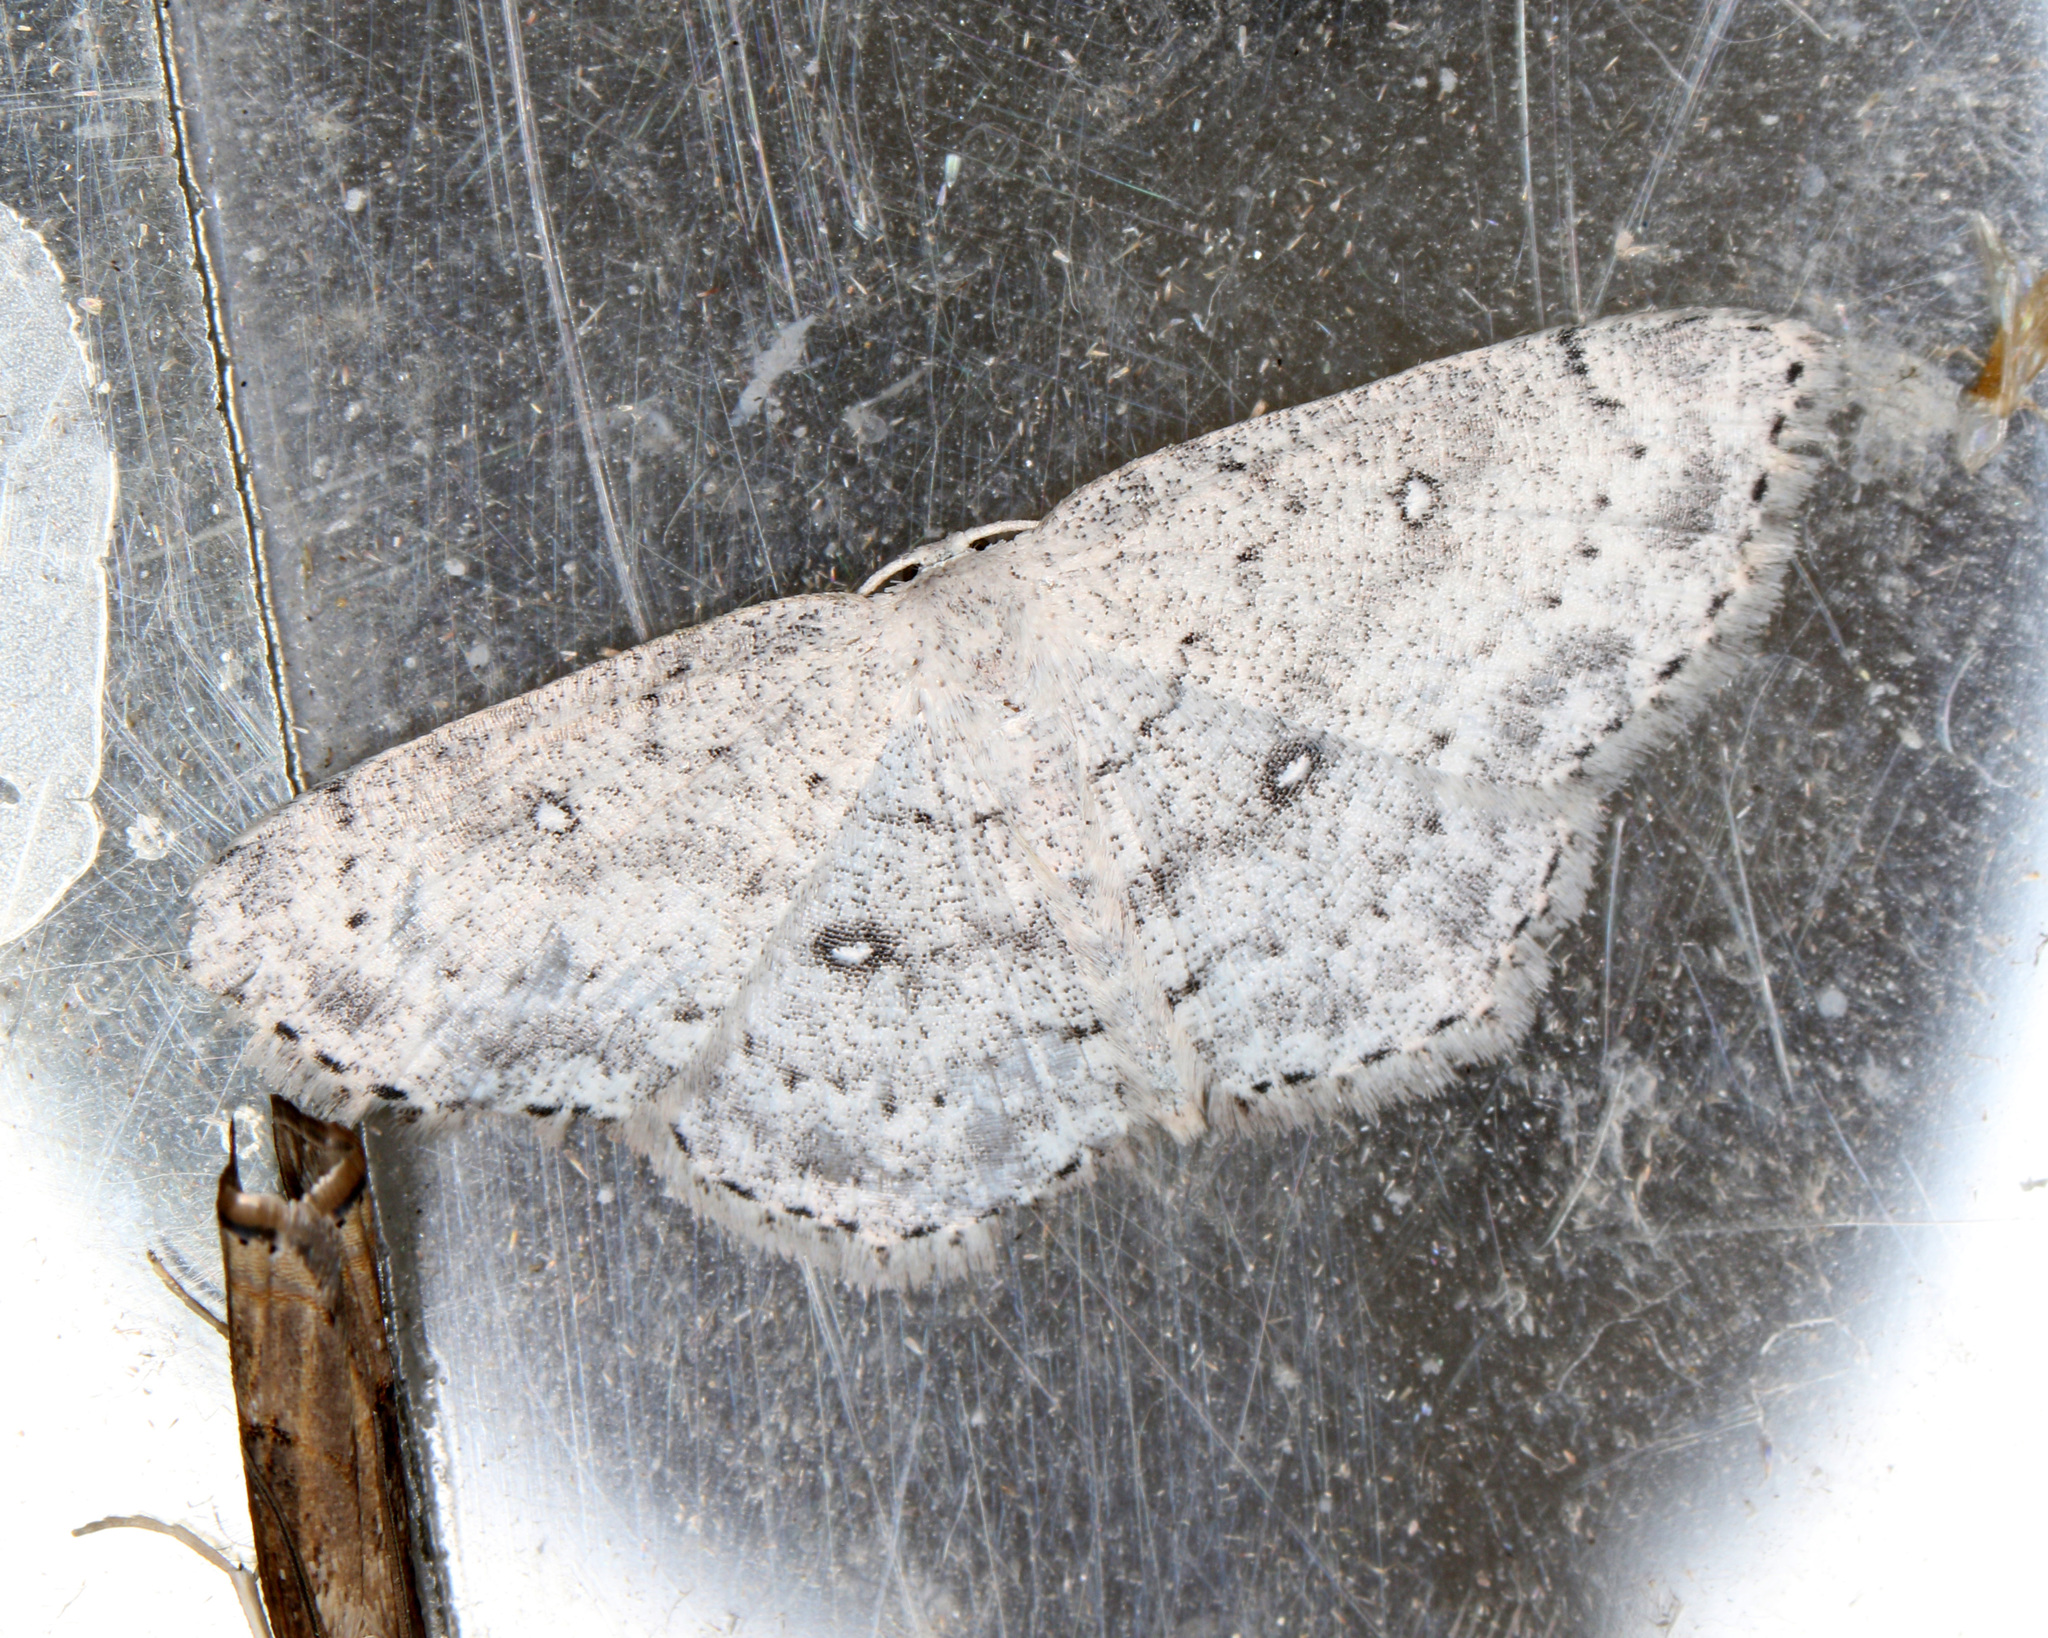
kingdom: Animalia
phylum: Arthropoda
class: Insecta
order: Lepidoptera
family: Geometridae
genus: Cyclophora
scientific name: Cyclophora pendulinaria
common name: Sweet fern geometer
